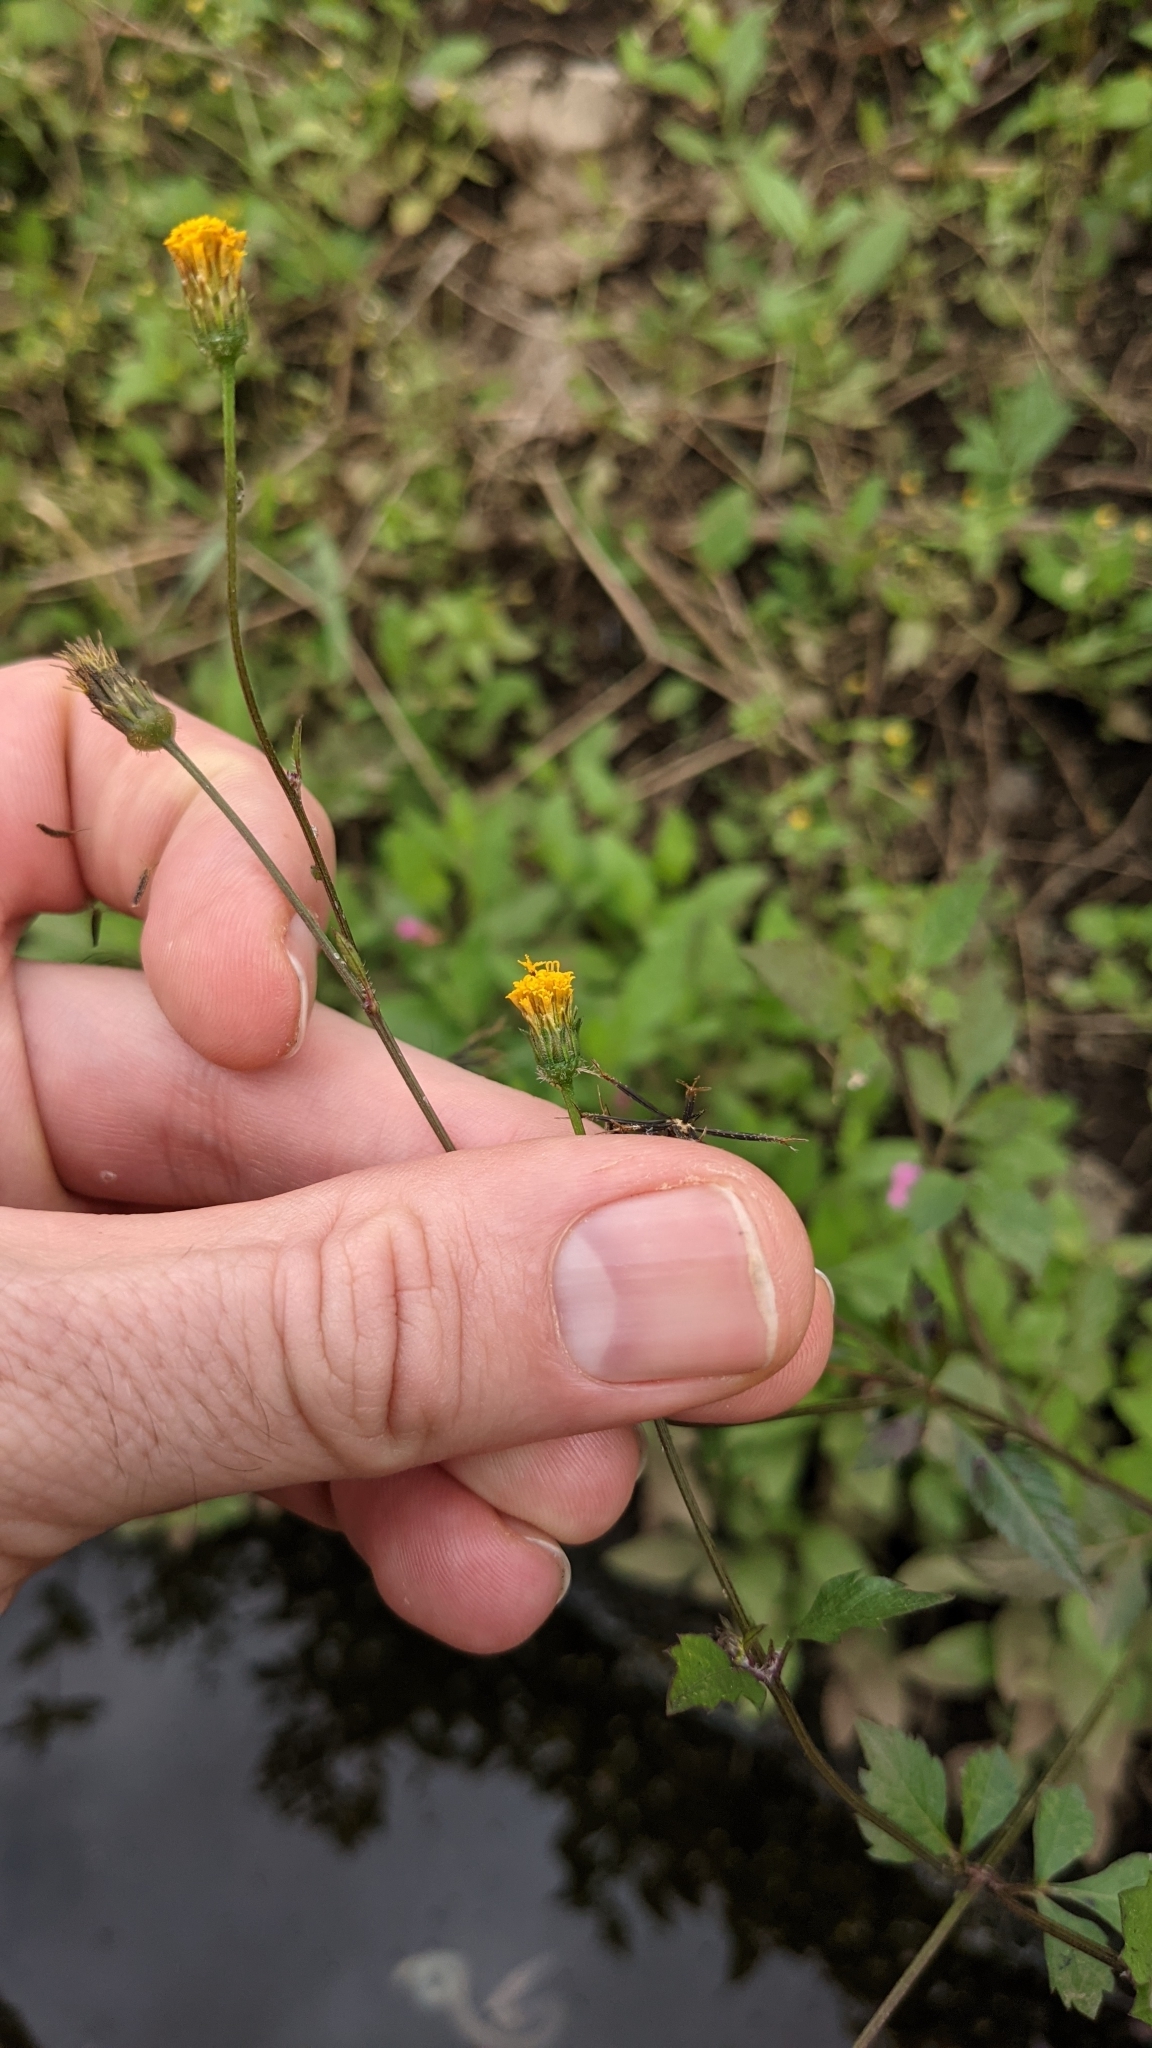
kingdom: Plantae
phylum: Tracheophyta
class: Magnoliopsida
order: Asterales
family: Asteraceae
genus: Bidens
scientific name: Bidens pilosa
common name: Black-jack
